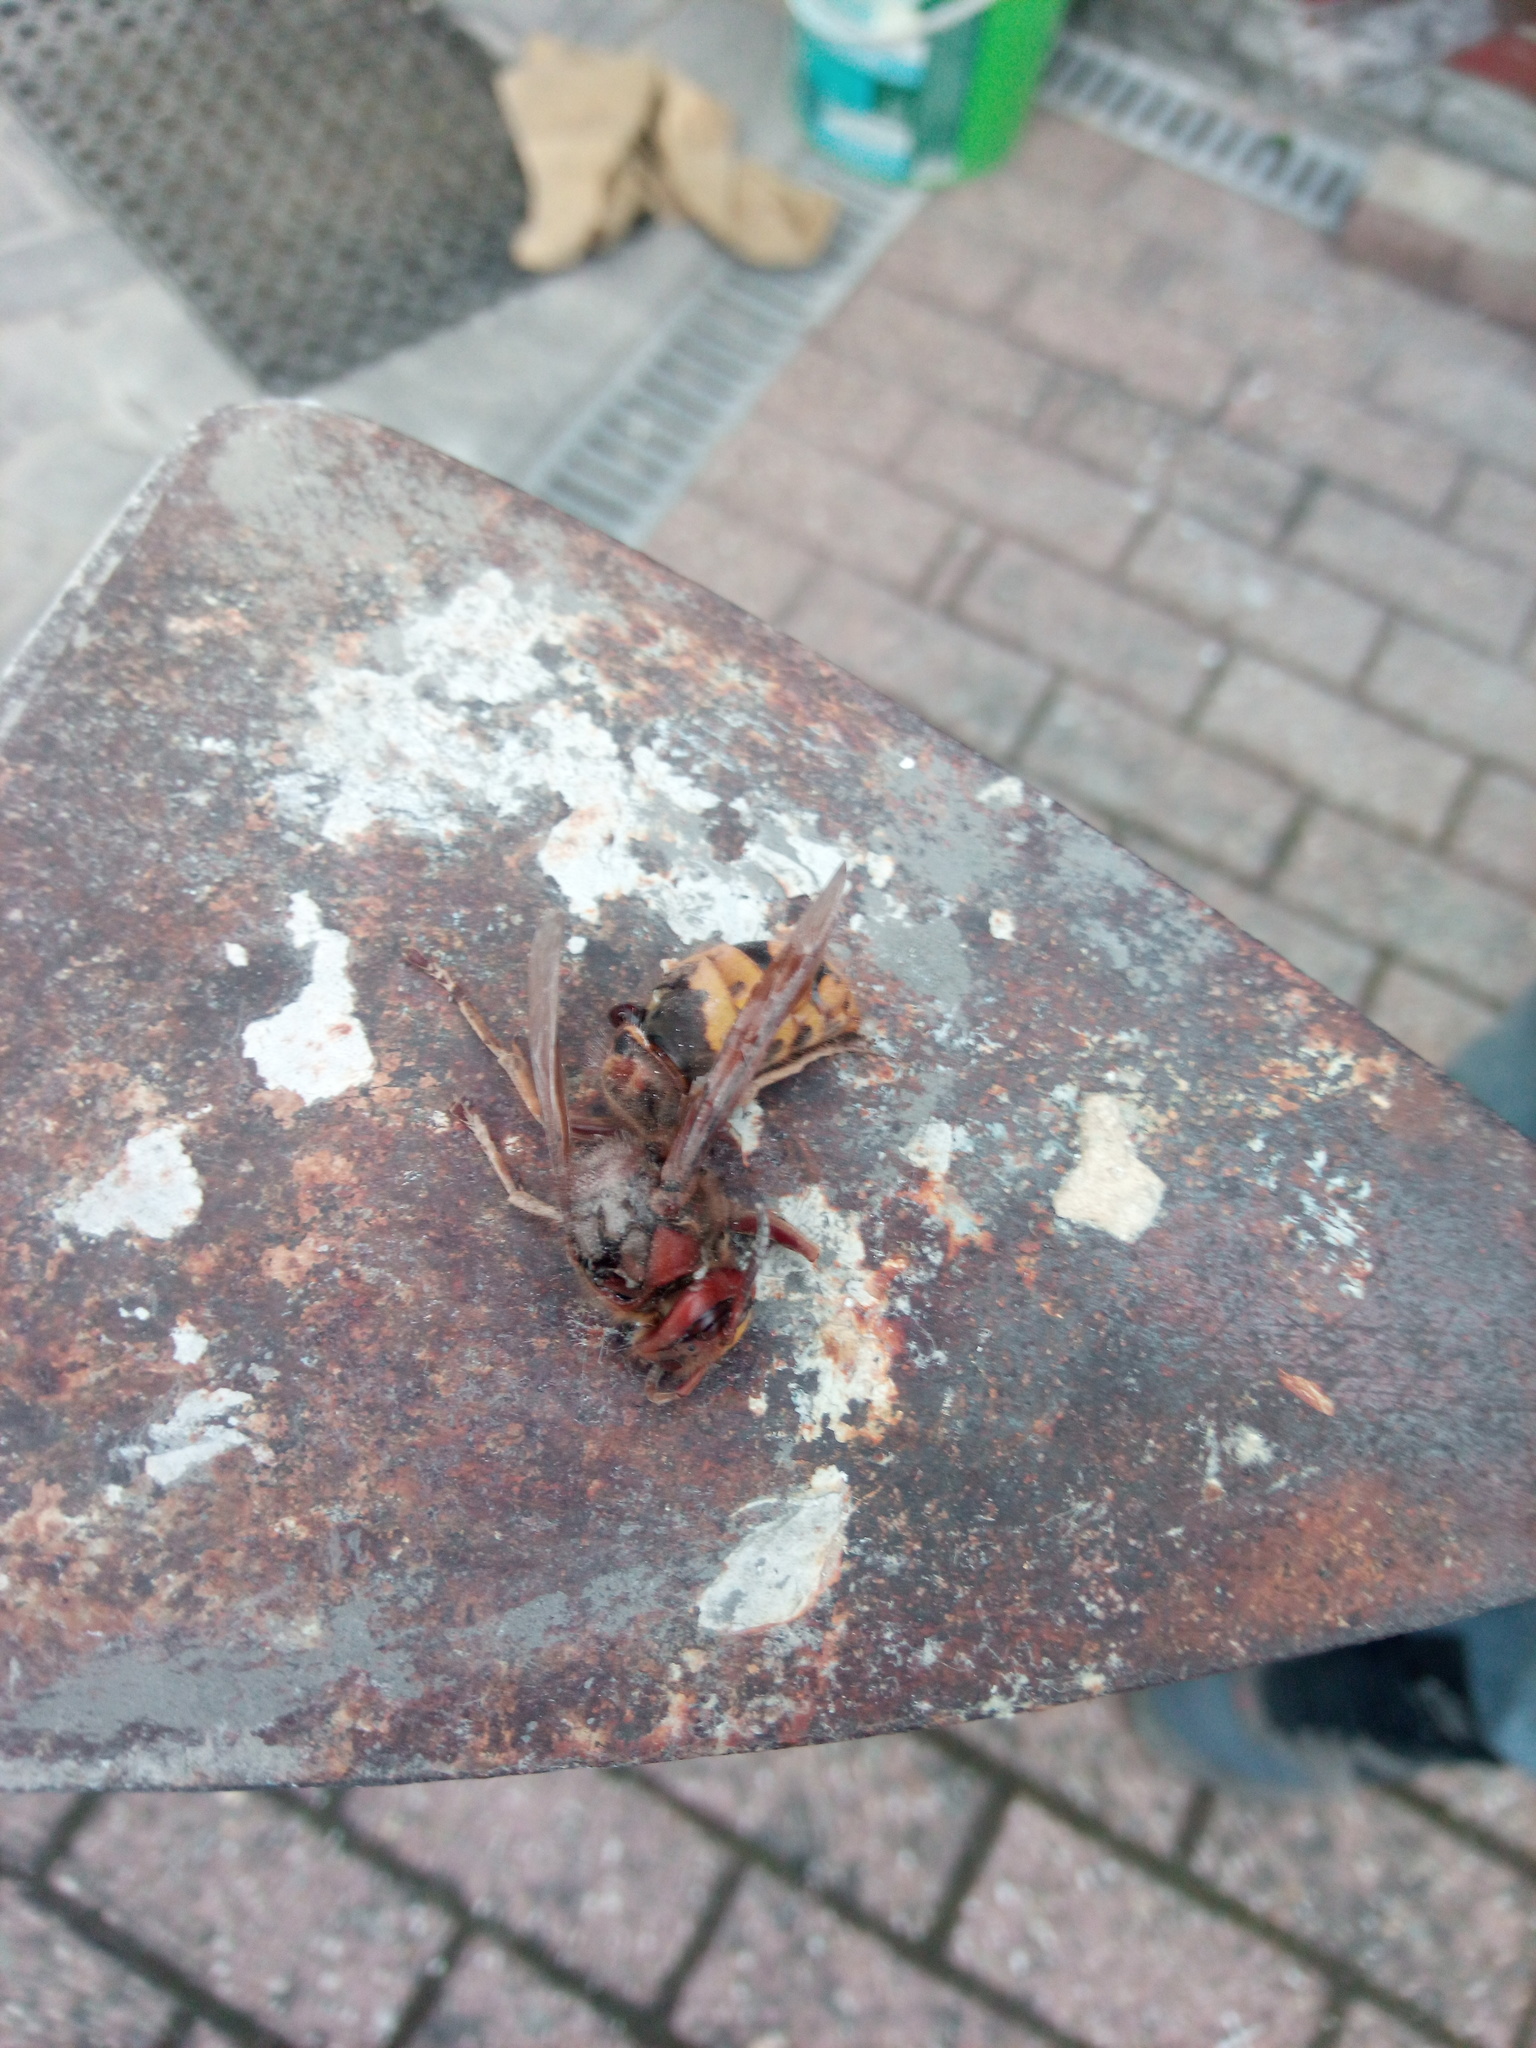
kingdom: Animalia
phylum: Arthropoda
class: Insecta
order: Hymenoptera
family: Vespidae
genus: Vespa
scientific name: Vespa crabro
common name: Hornet
